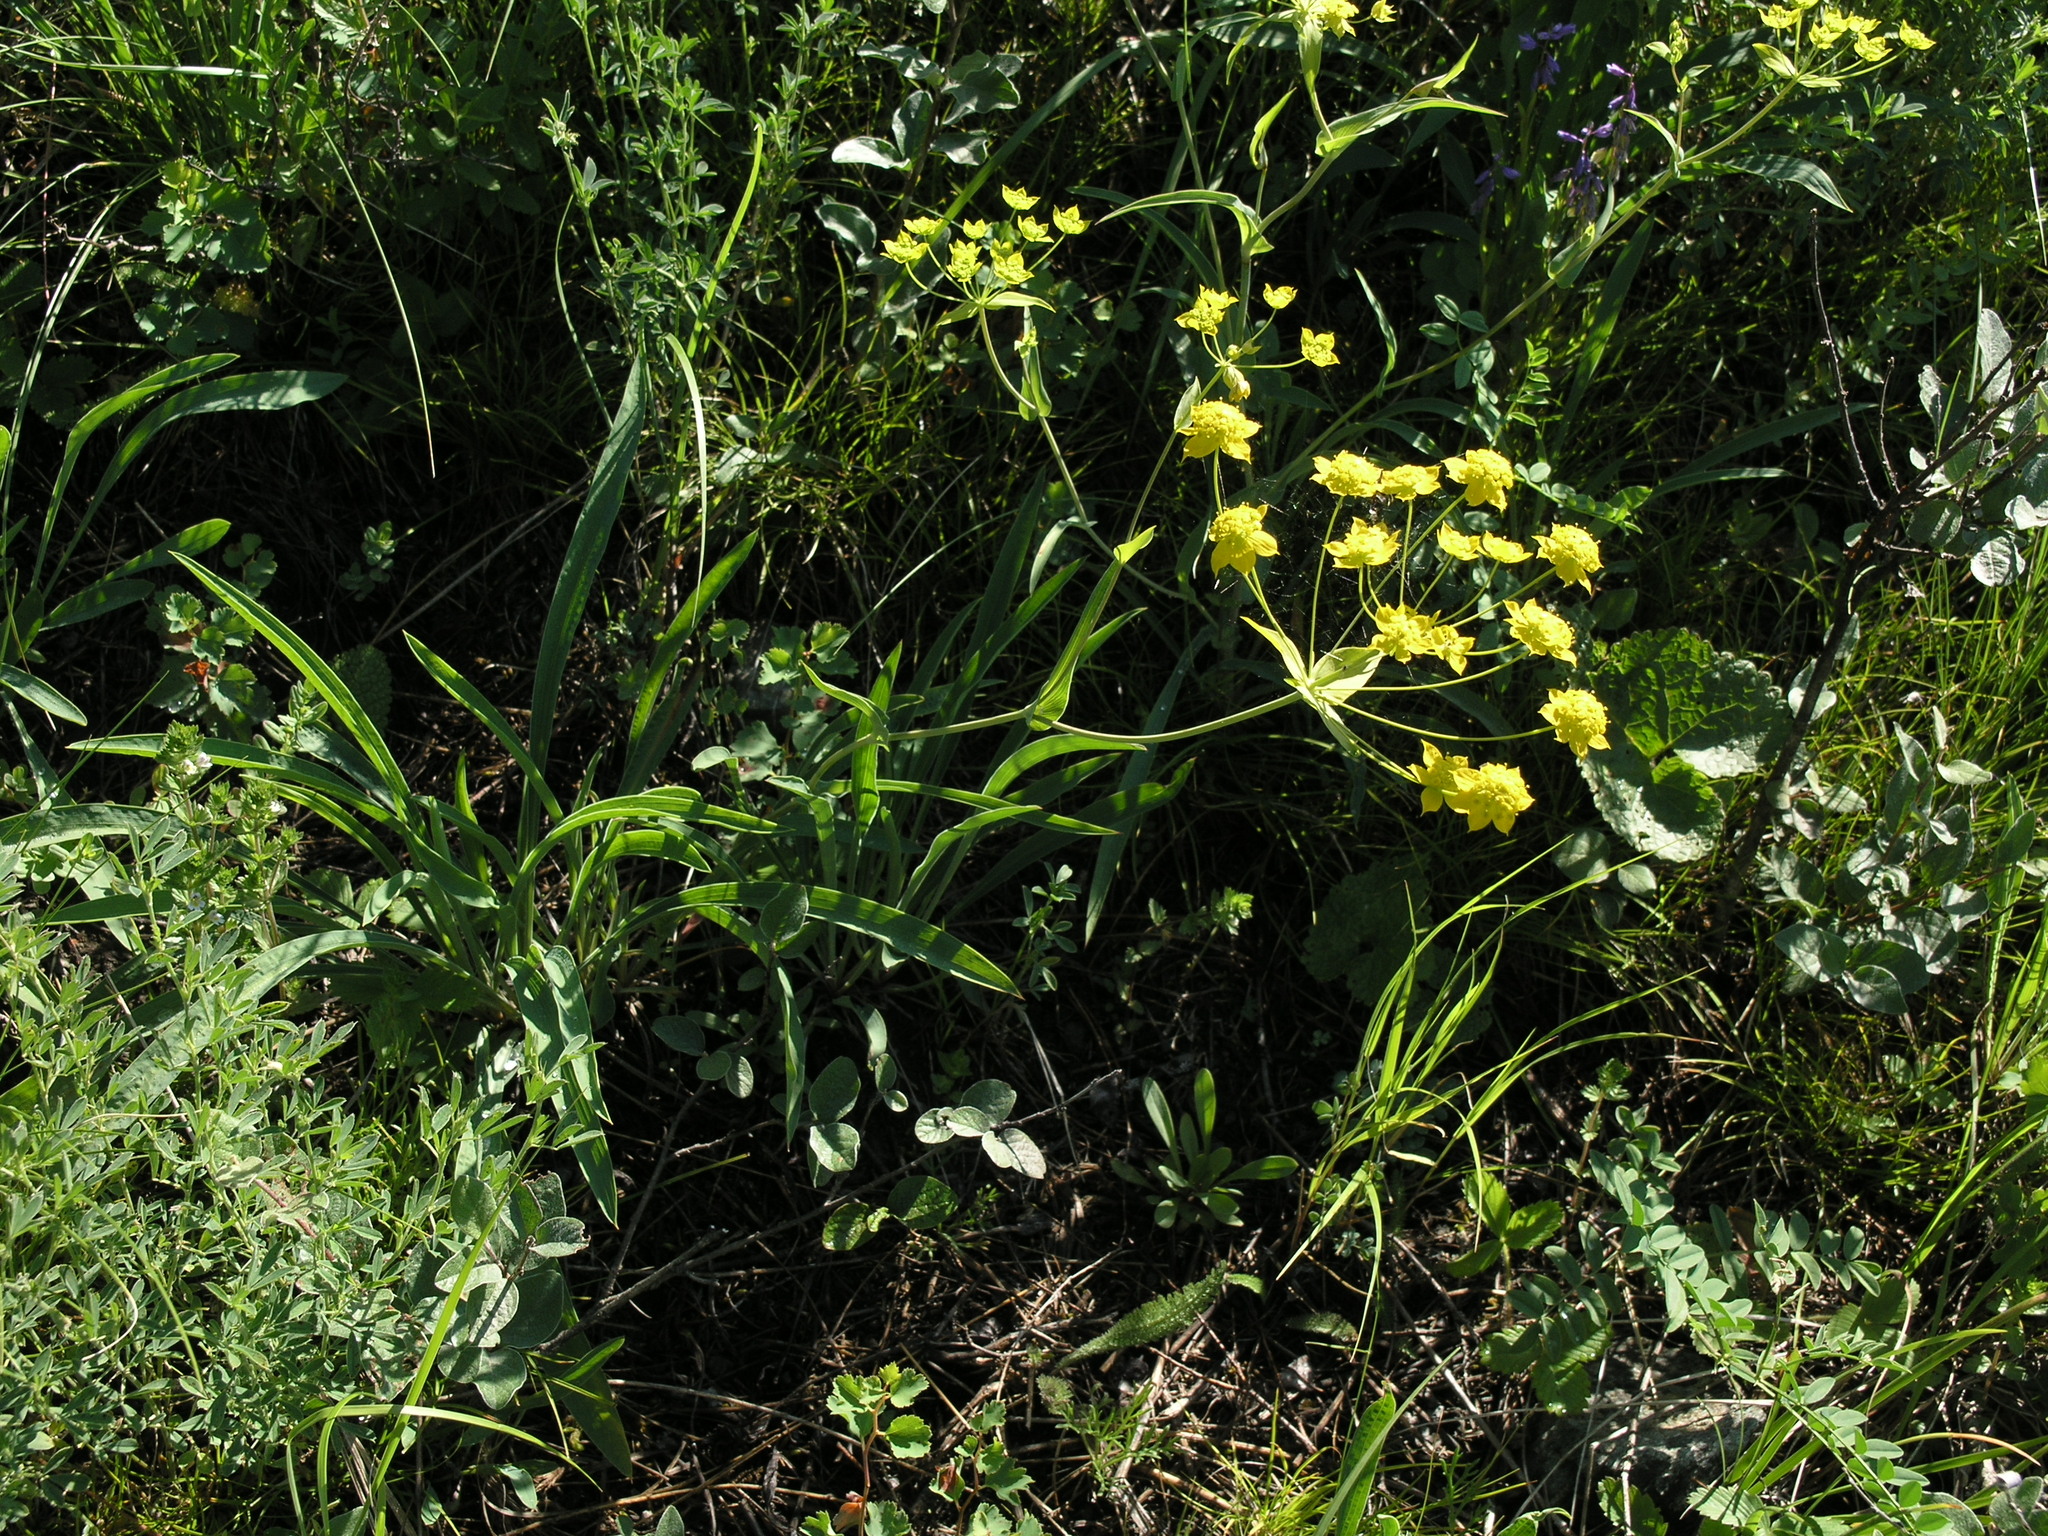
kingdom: Plantae
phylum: Tracheophyta
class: Magnoliopsida
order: Apiales
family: Apiaceae
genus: Bupleurum
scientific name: Bupleurum multinerve
